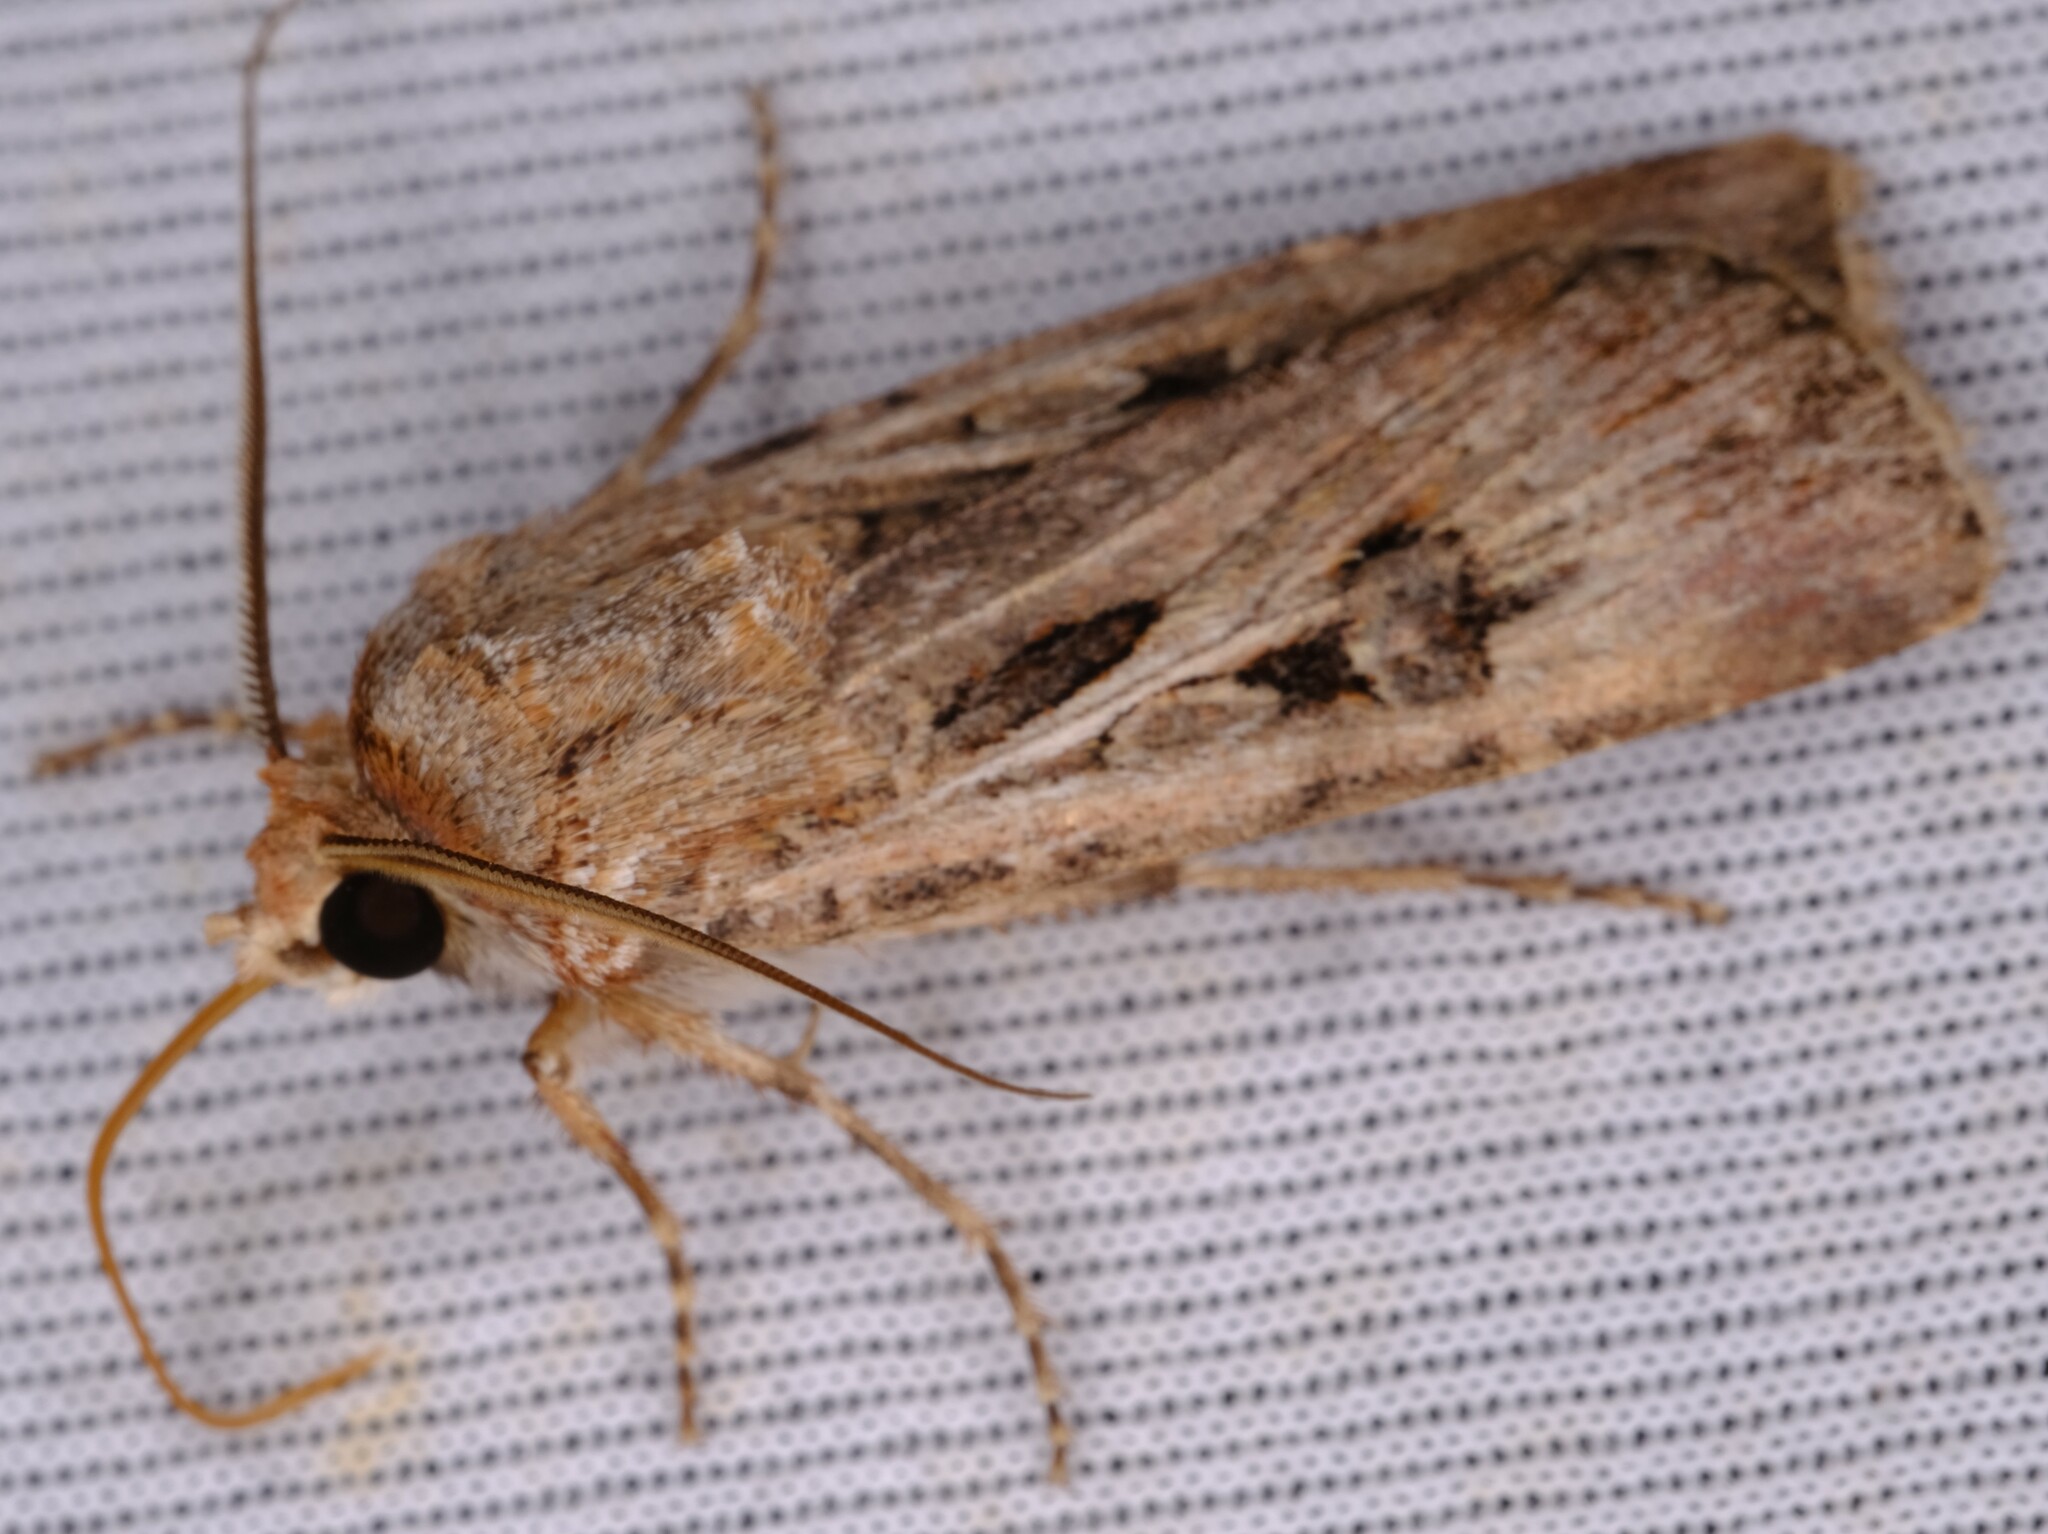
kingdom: Animalia
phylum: Arthropoda
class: Insecta
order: Lepidoptera
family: Noctuidae
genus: Agrotis
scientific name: Agrotis munda
